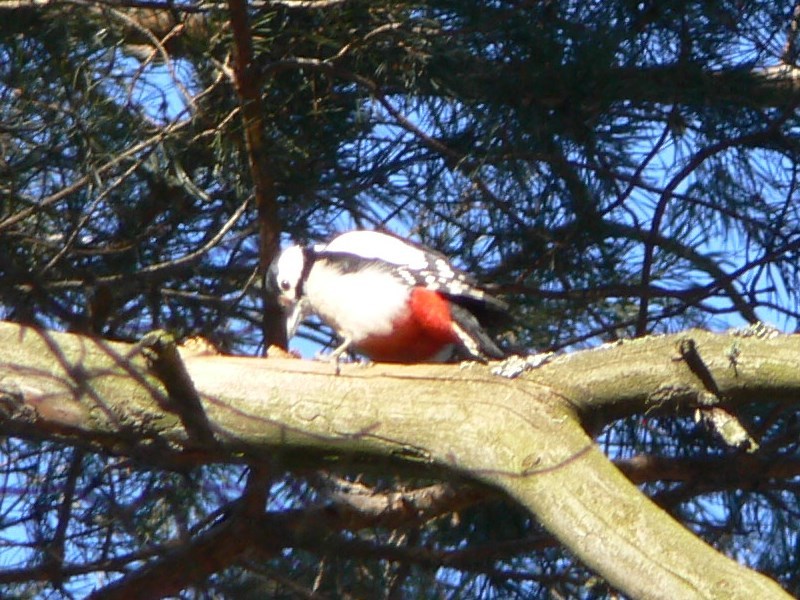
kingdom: Animalia
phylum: Chordata
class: Aves
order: Piciformes
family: Picidae
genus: Dendrocopos
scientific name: Dendrocopos major
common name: Great spotted woodpecker
